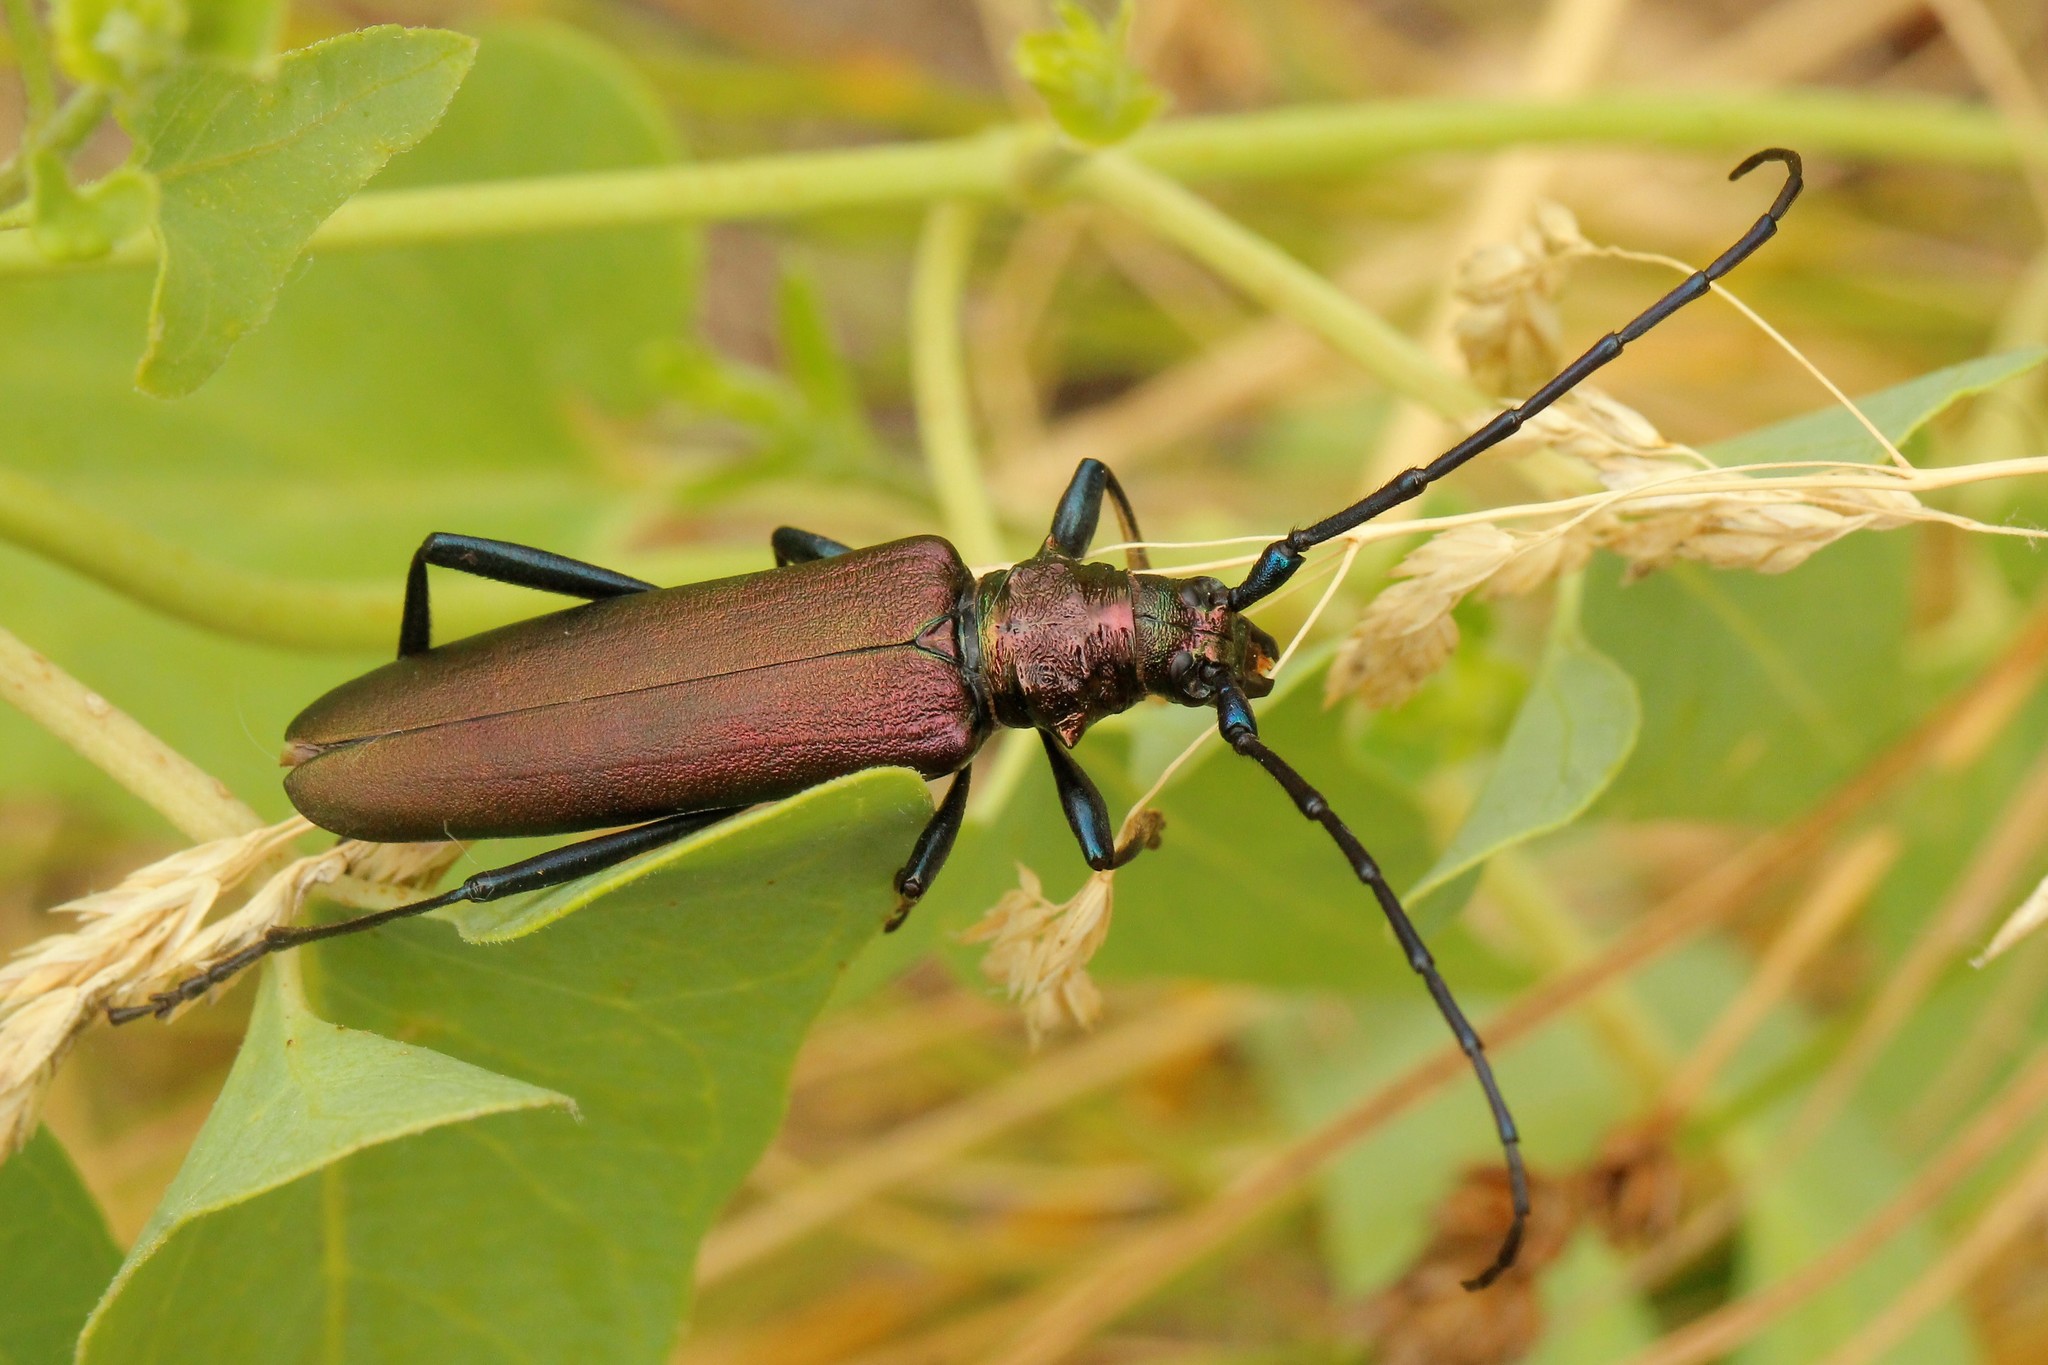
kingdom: Animalia
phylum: Arthropoda
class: Insecta
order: Coleoptera
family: Cerambycidae
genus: Aromia
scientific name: Aromia moschata
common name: Musk beetle
